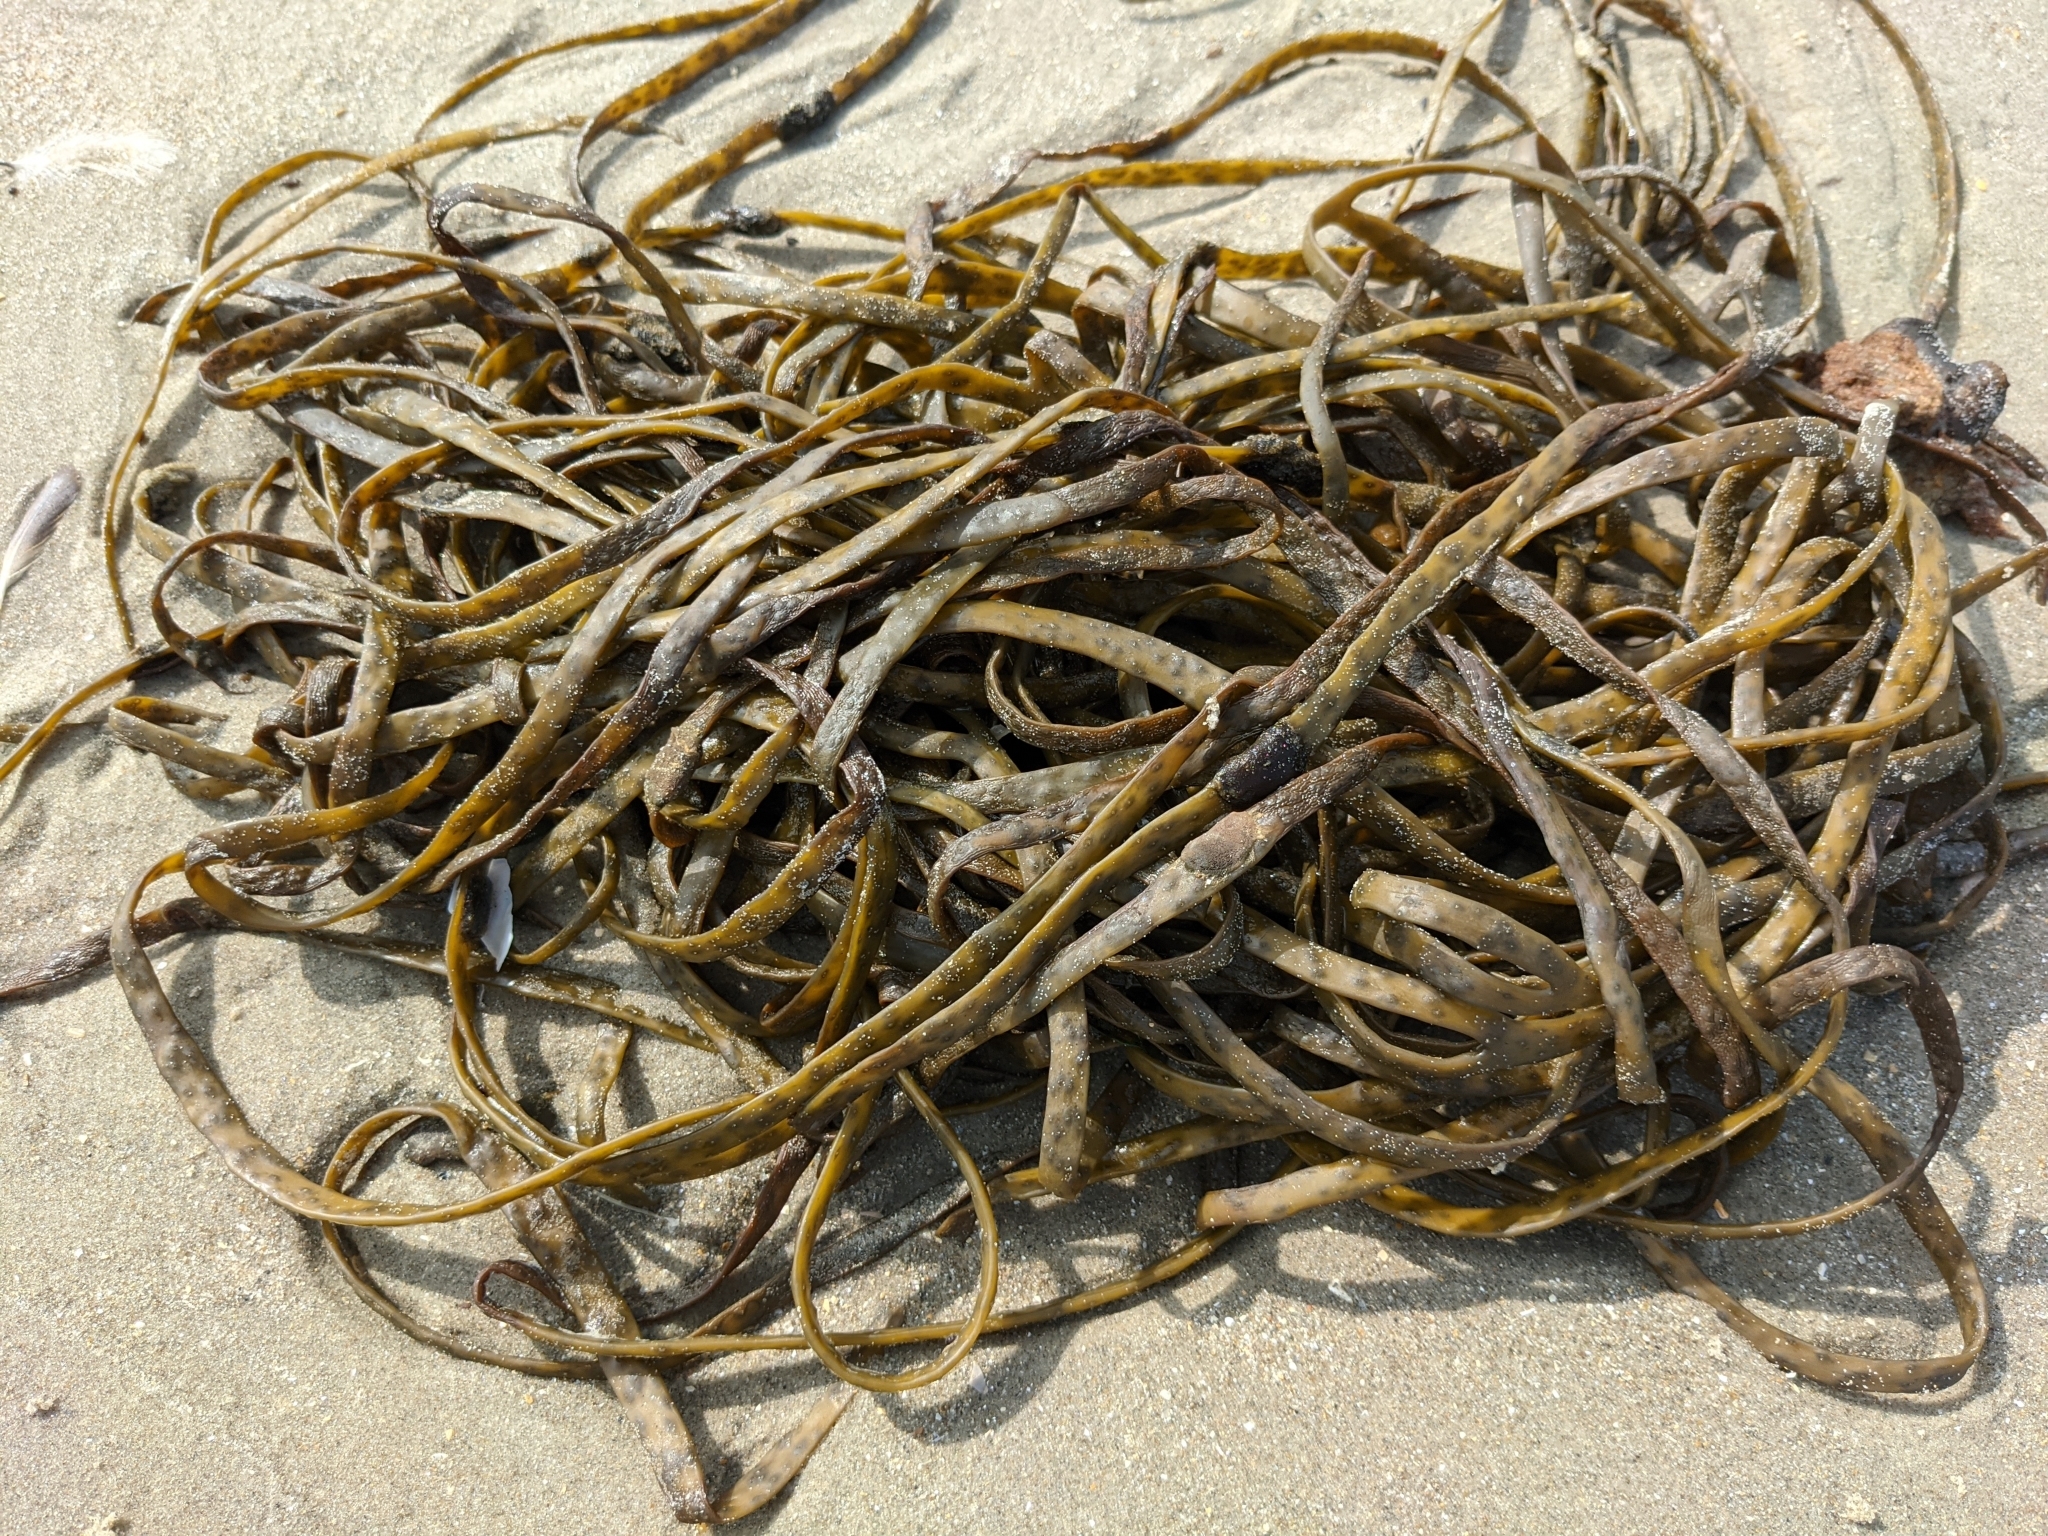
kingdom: Chromista
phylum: Ochrophyta
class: Phaeophyceae
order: Fucales
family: Himanthaliaceae
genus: Himanthalia
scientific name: Himanthalia elongata
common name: Sea-thong
